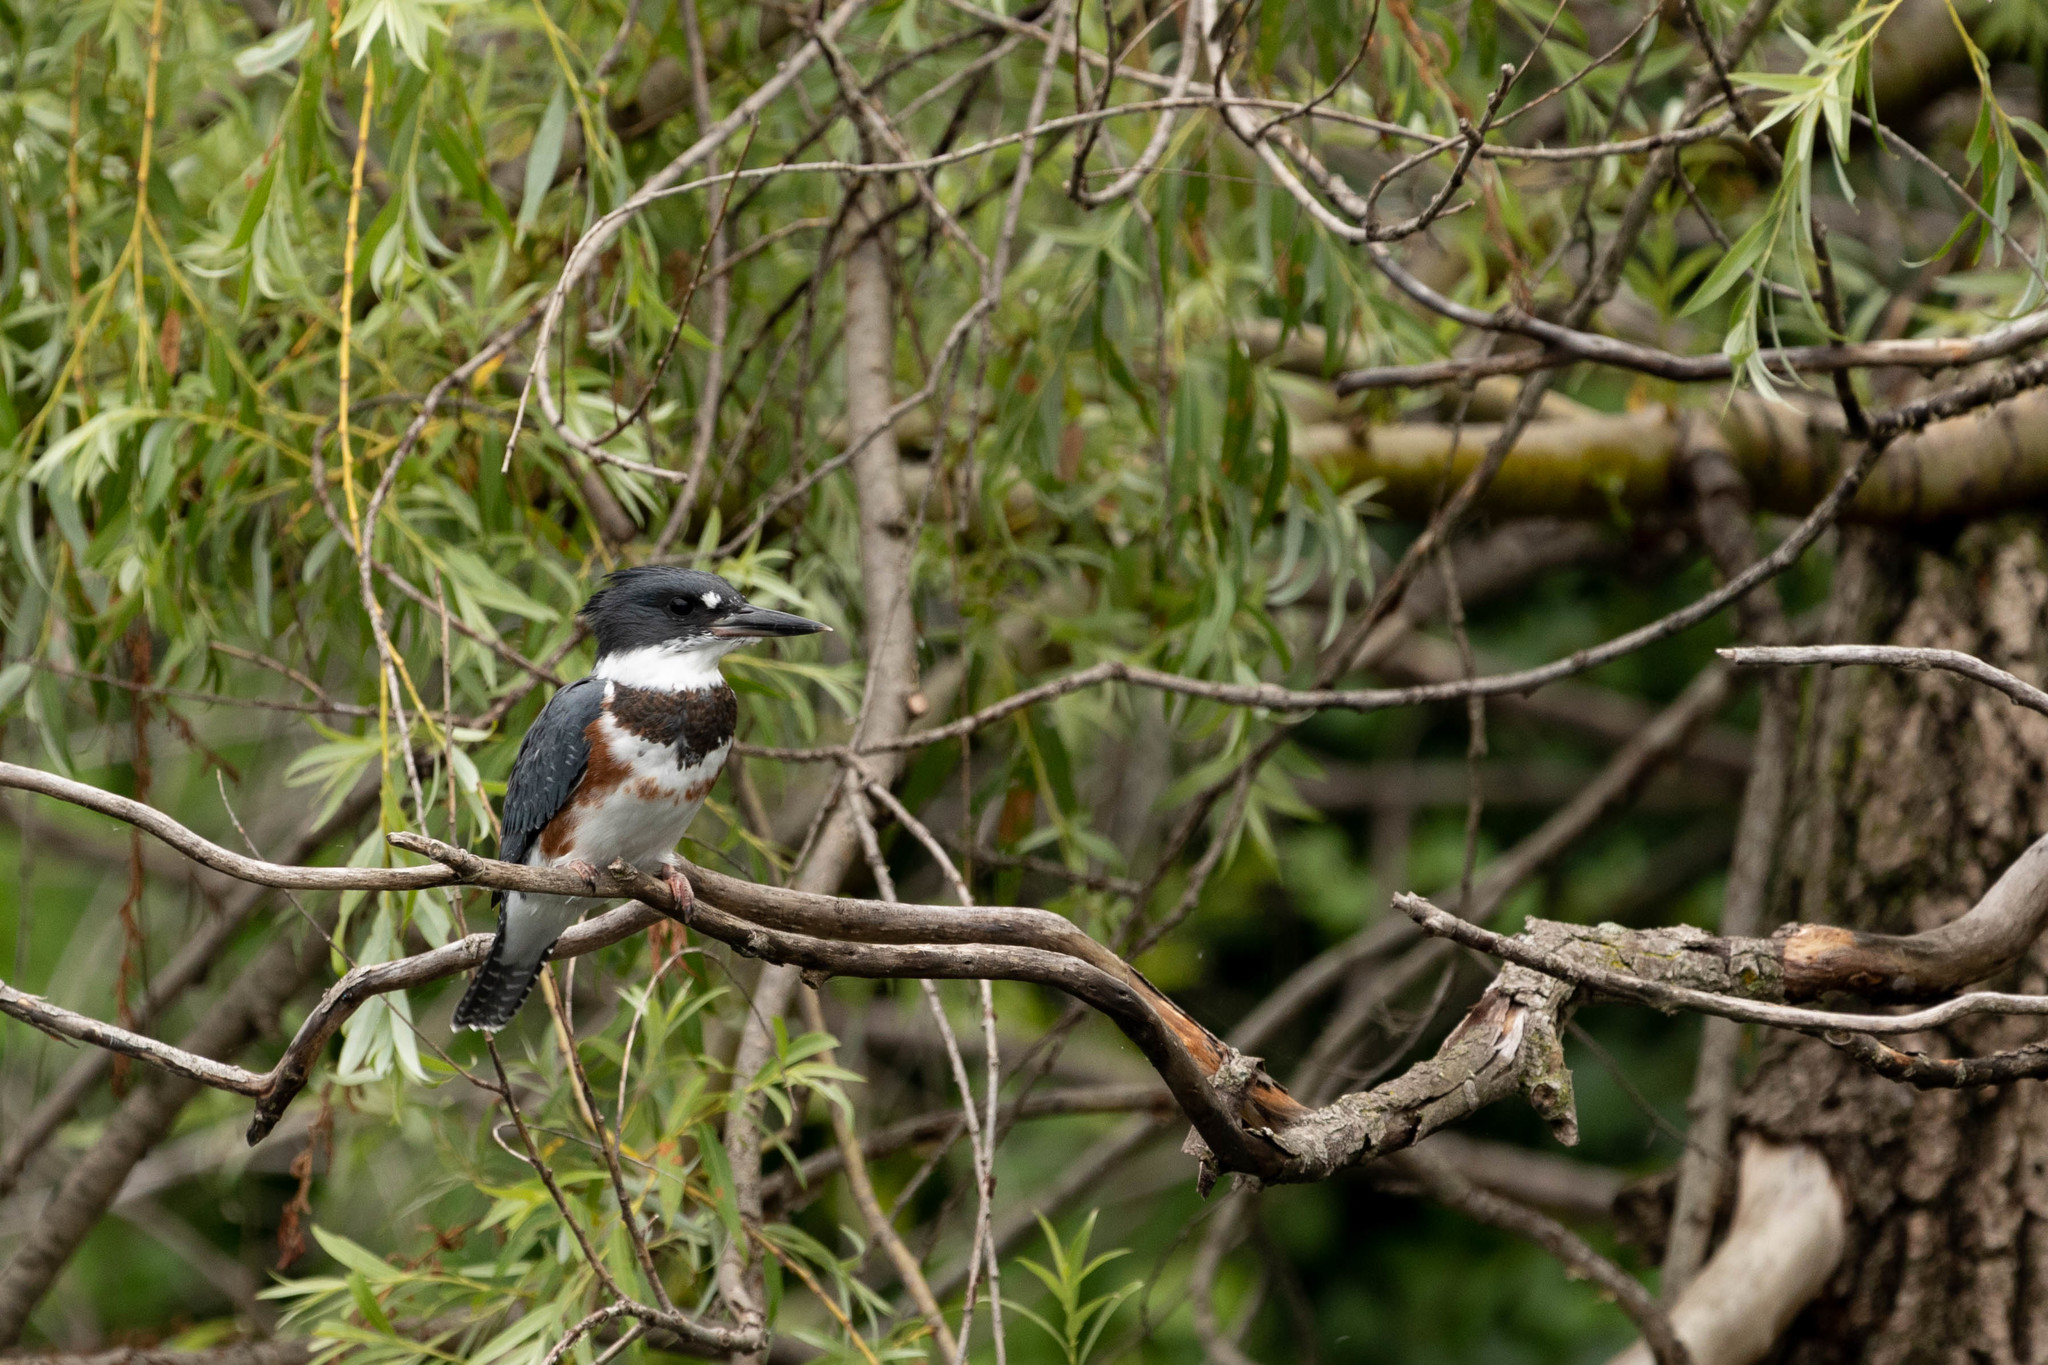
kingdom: Animalia
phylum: Chordata
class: Aves
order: Coraciiformes
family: Alcedinidae
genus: Megaceryle
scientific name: Megaceryle alcyon
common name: Belted kingfisher
